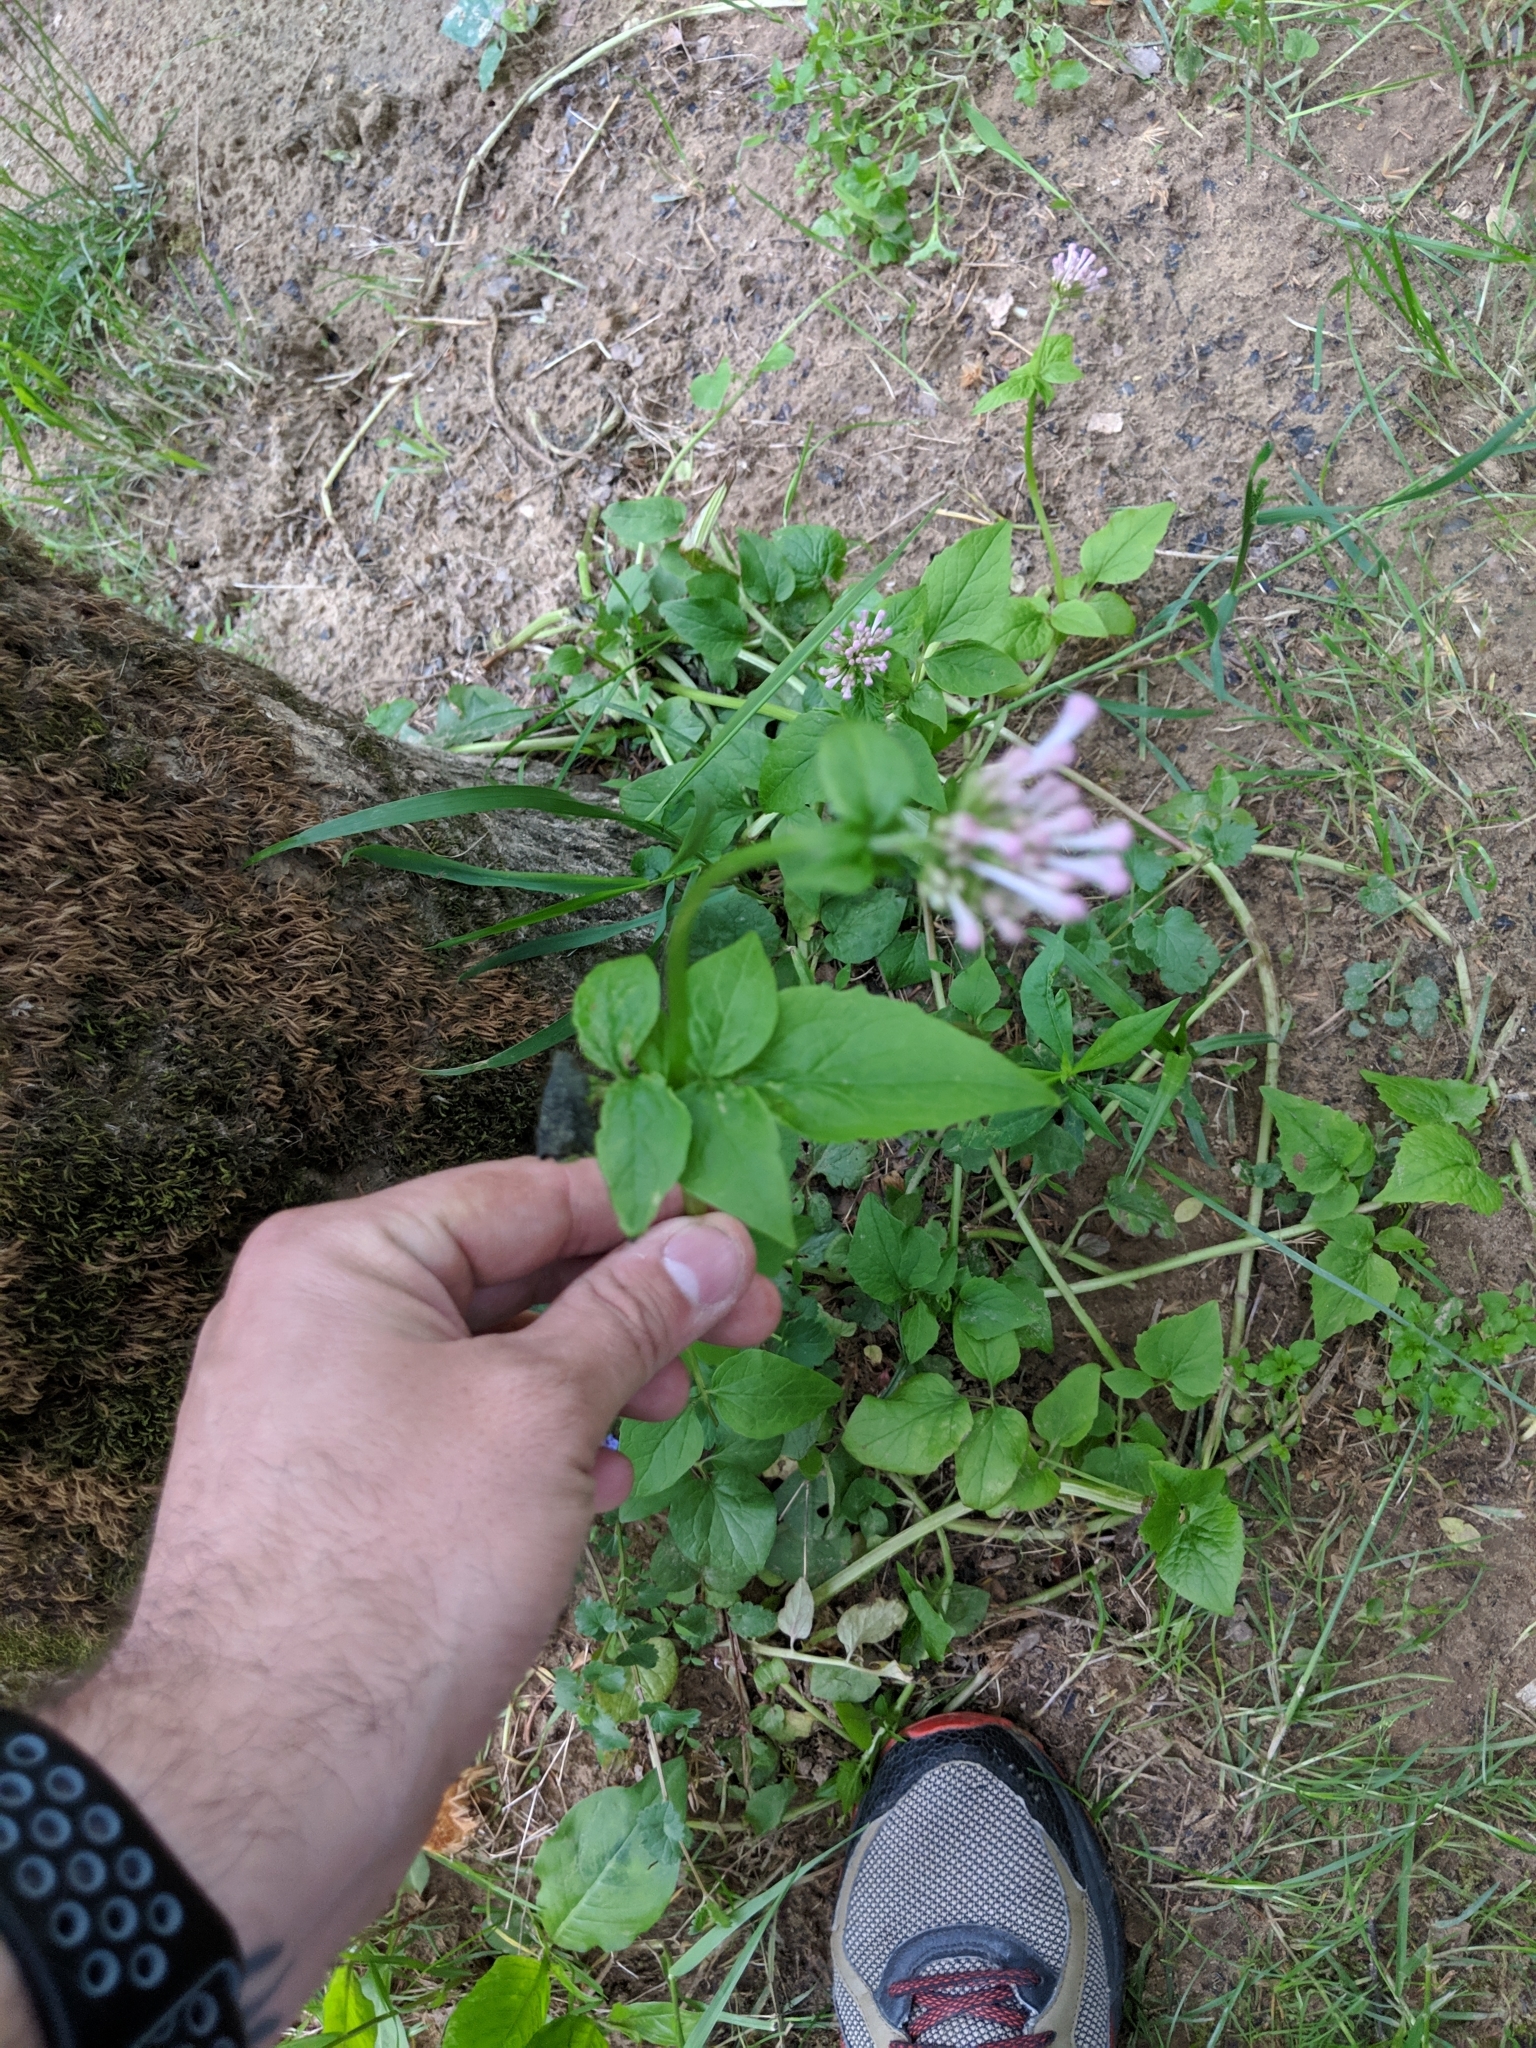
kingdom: Plantae
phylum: Tracheophyta
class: Magnoliopsida
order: Dipsacales
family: Caprifoliaceae
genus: Valeriana
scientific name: Valeriana pauciflora
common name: Long-tube valeriana
